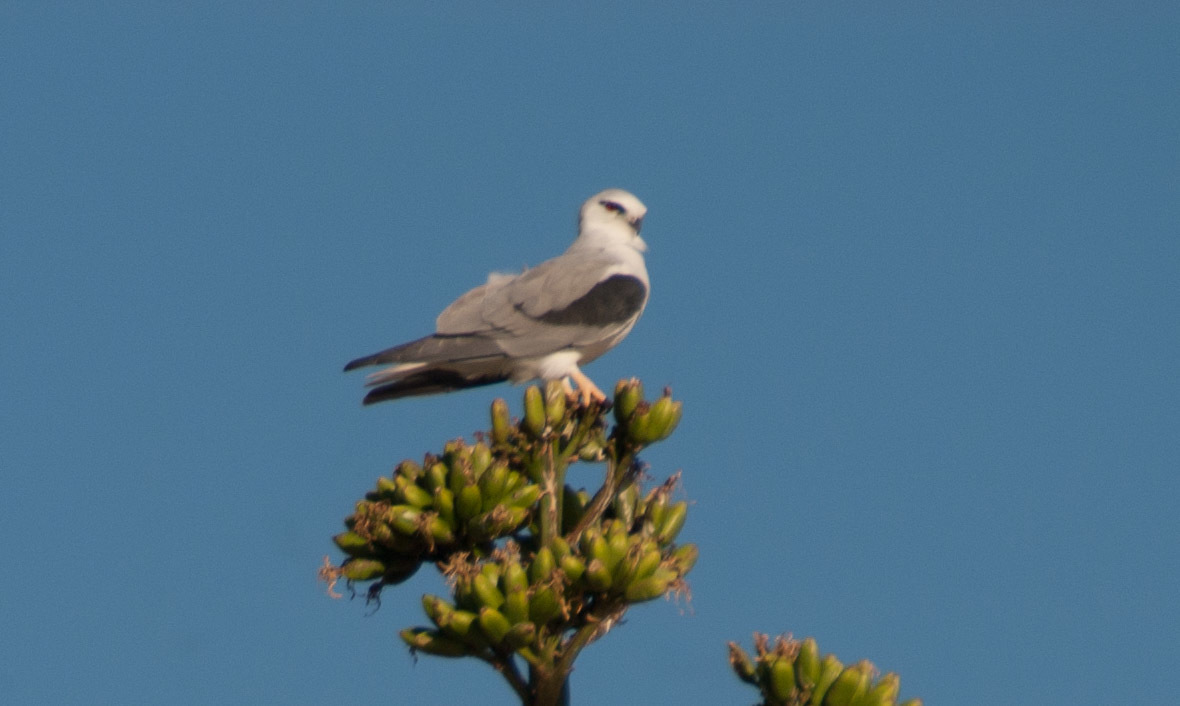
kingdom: Animalia
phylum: Chordata
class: Aves
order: Accipitriformes
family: Accipitridae
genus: Elanus
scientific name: Elanus axillaris
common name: Black-shouldered kite
